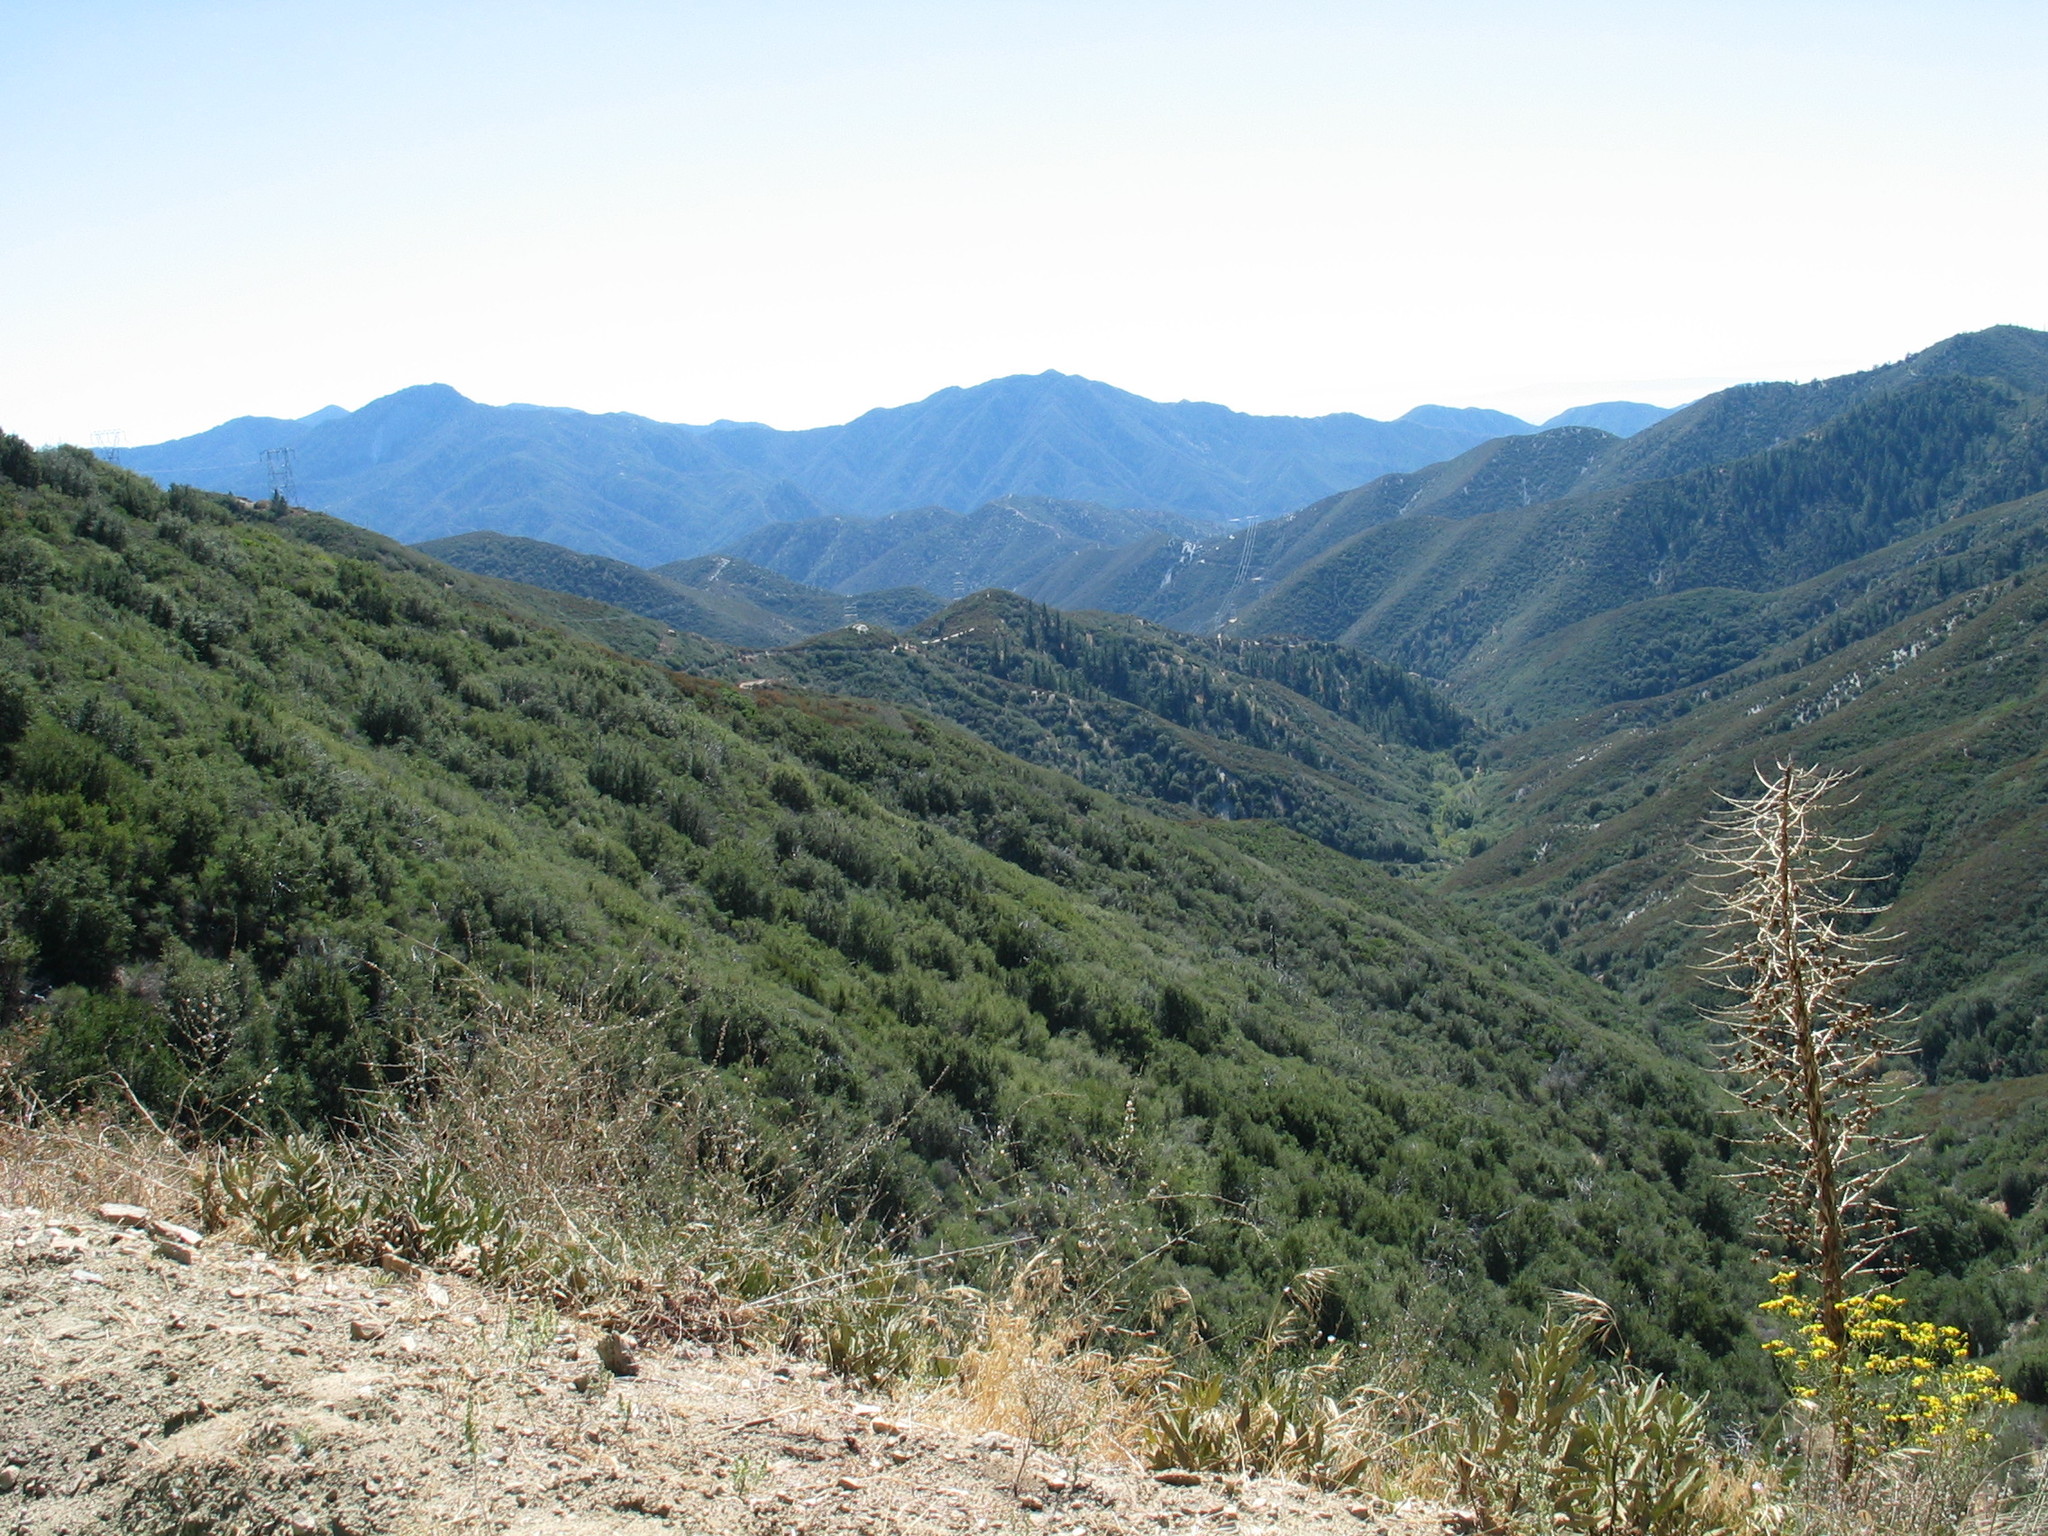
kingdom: Plantae
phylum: Tracheophyta
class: Liliopsida
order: Poales
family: Poaceae
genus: Bromus
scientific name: Bromus tectorum
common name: Cheatgrass
